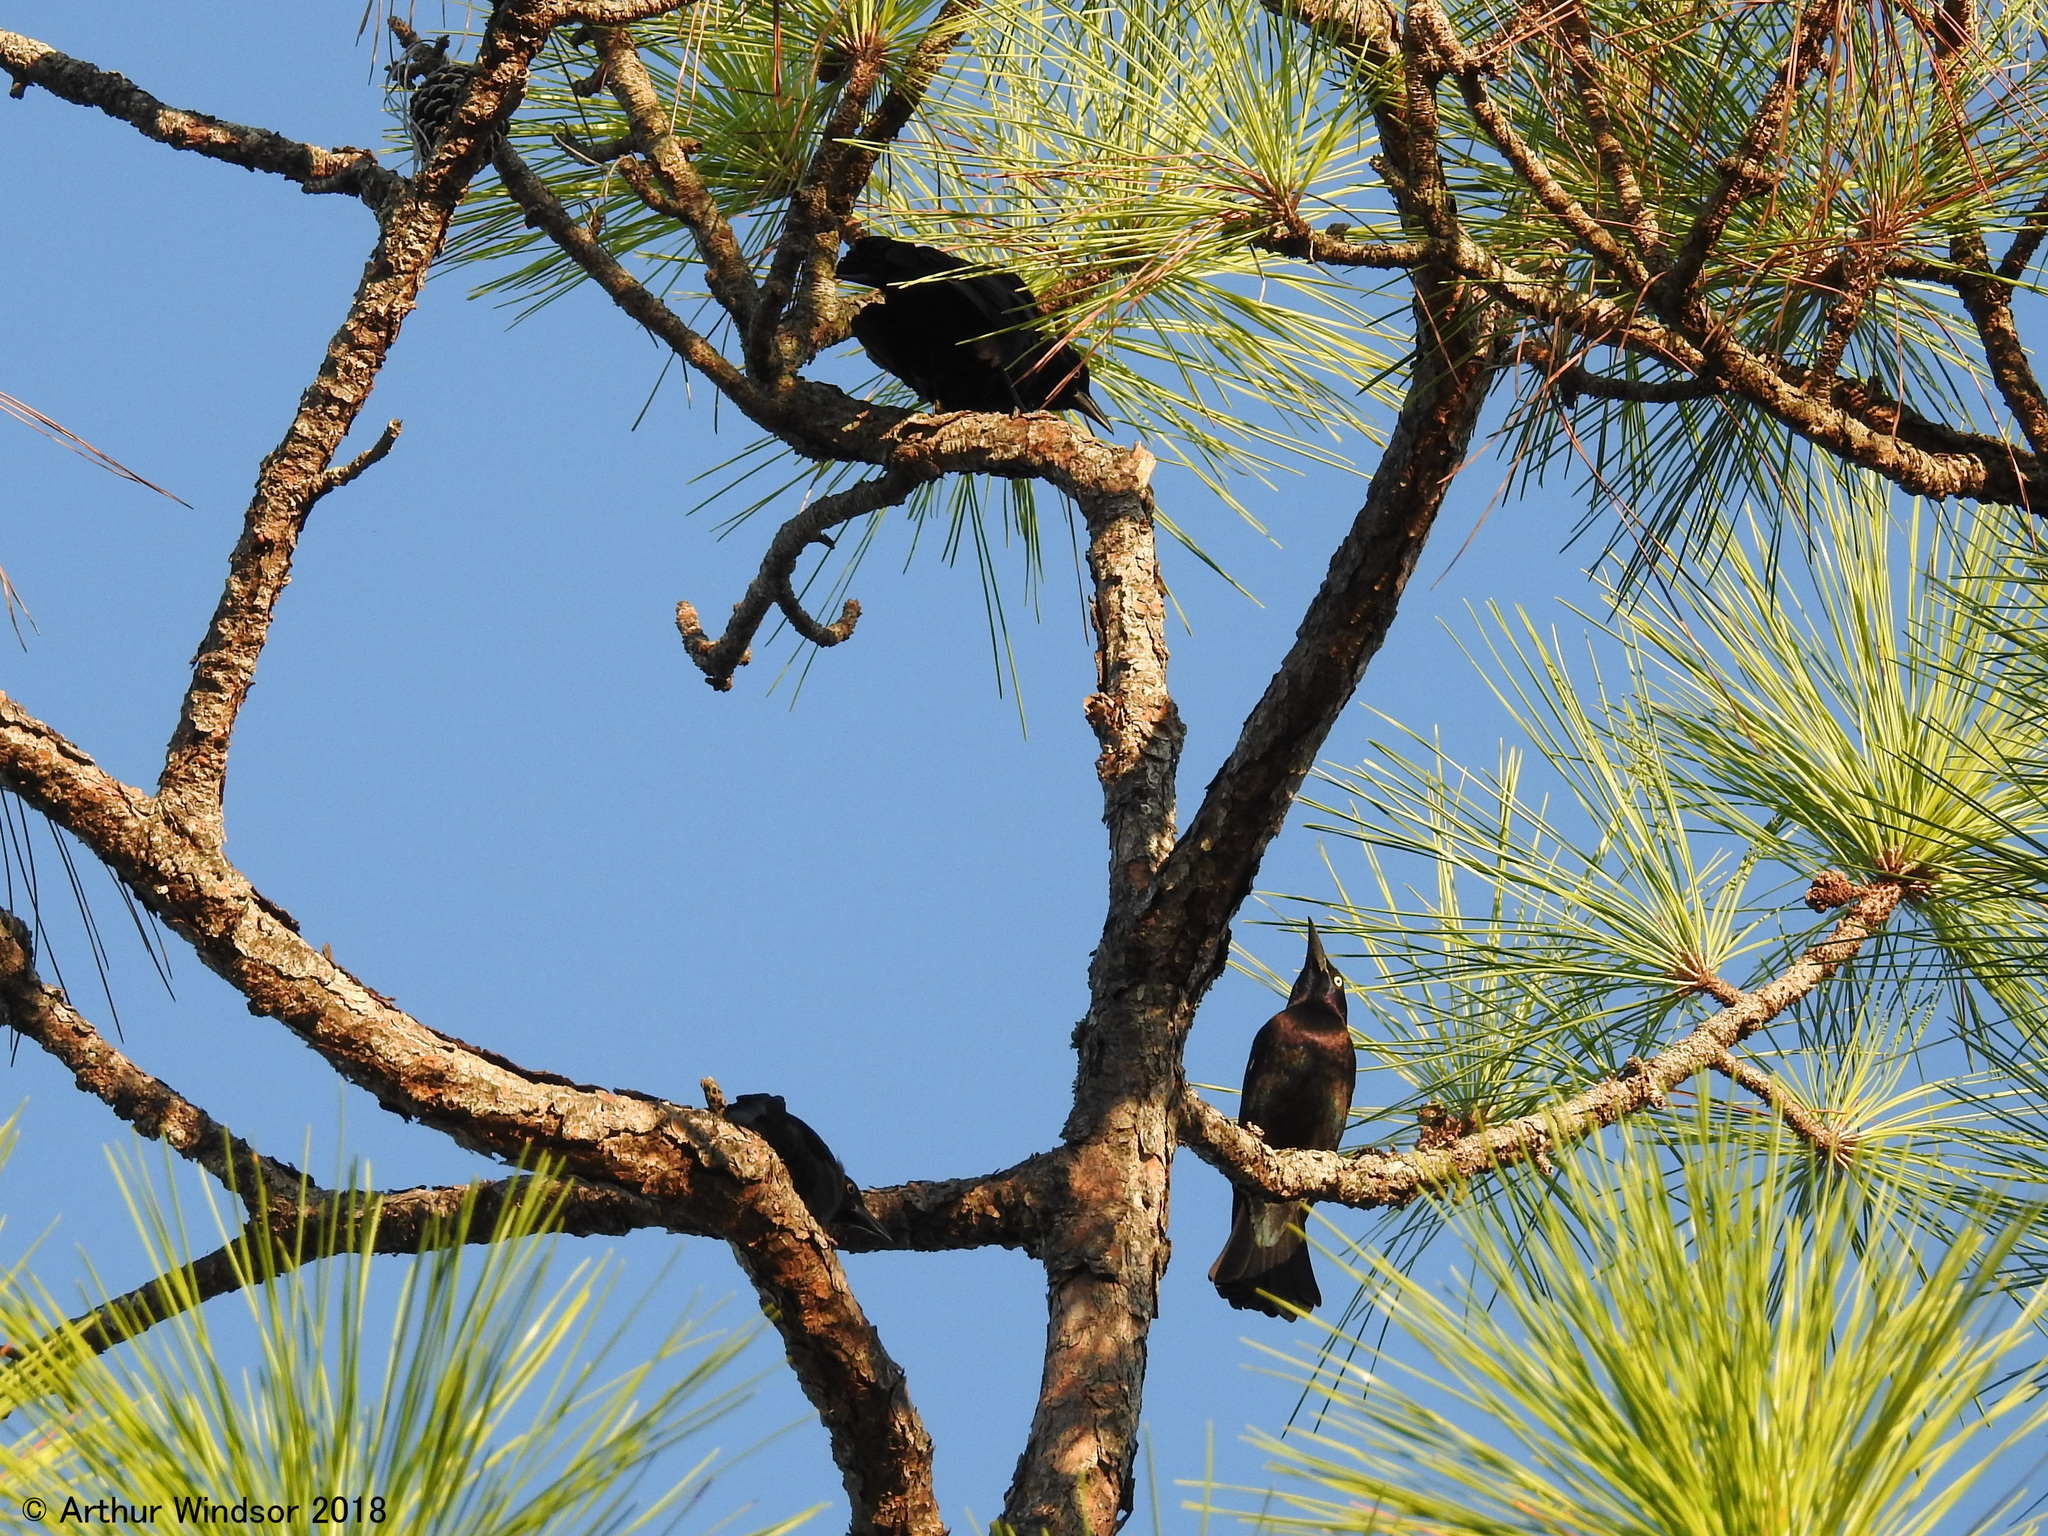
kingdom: Animalia
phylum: Chordata
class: Aves
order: Passeriformes
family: Icteridae
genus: Quiscalus
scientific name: Quiscalus quiscula
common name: Common grackle
